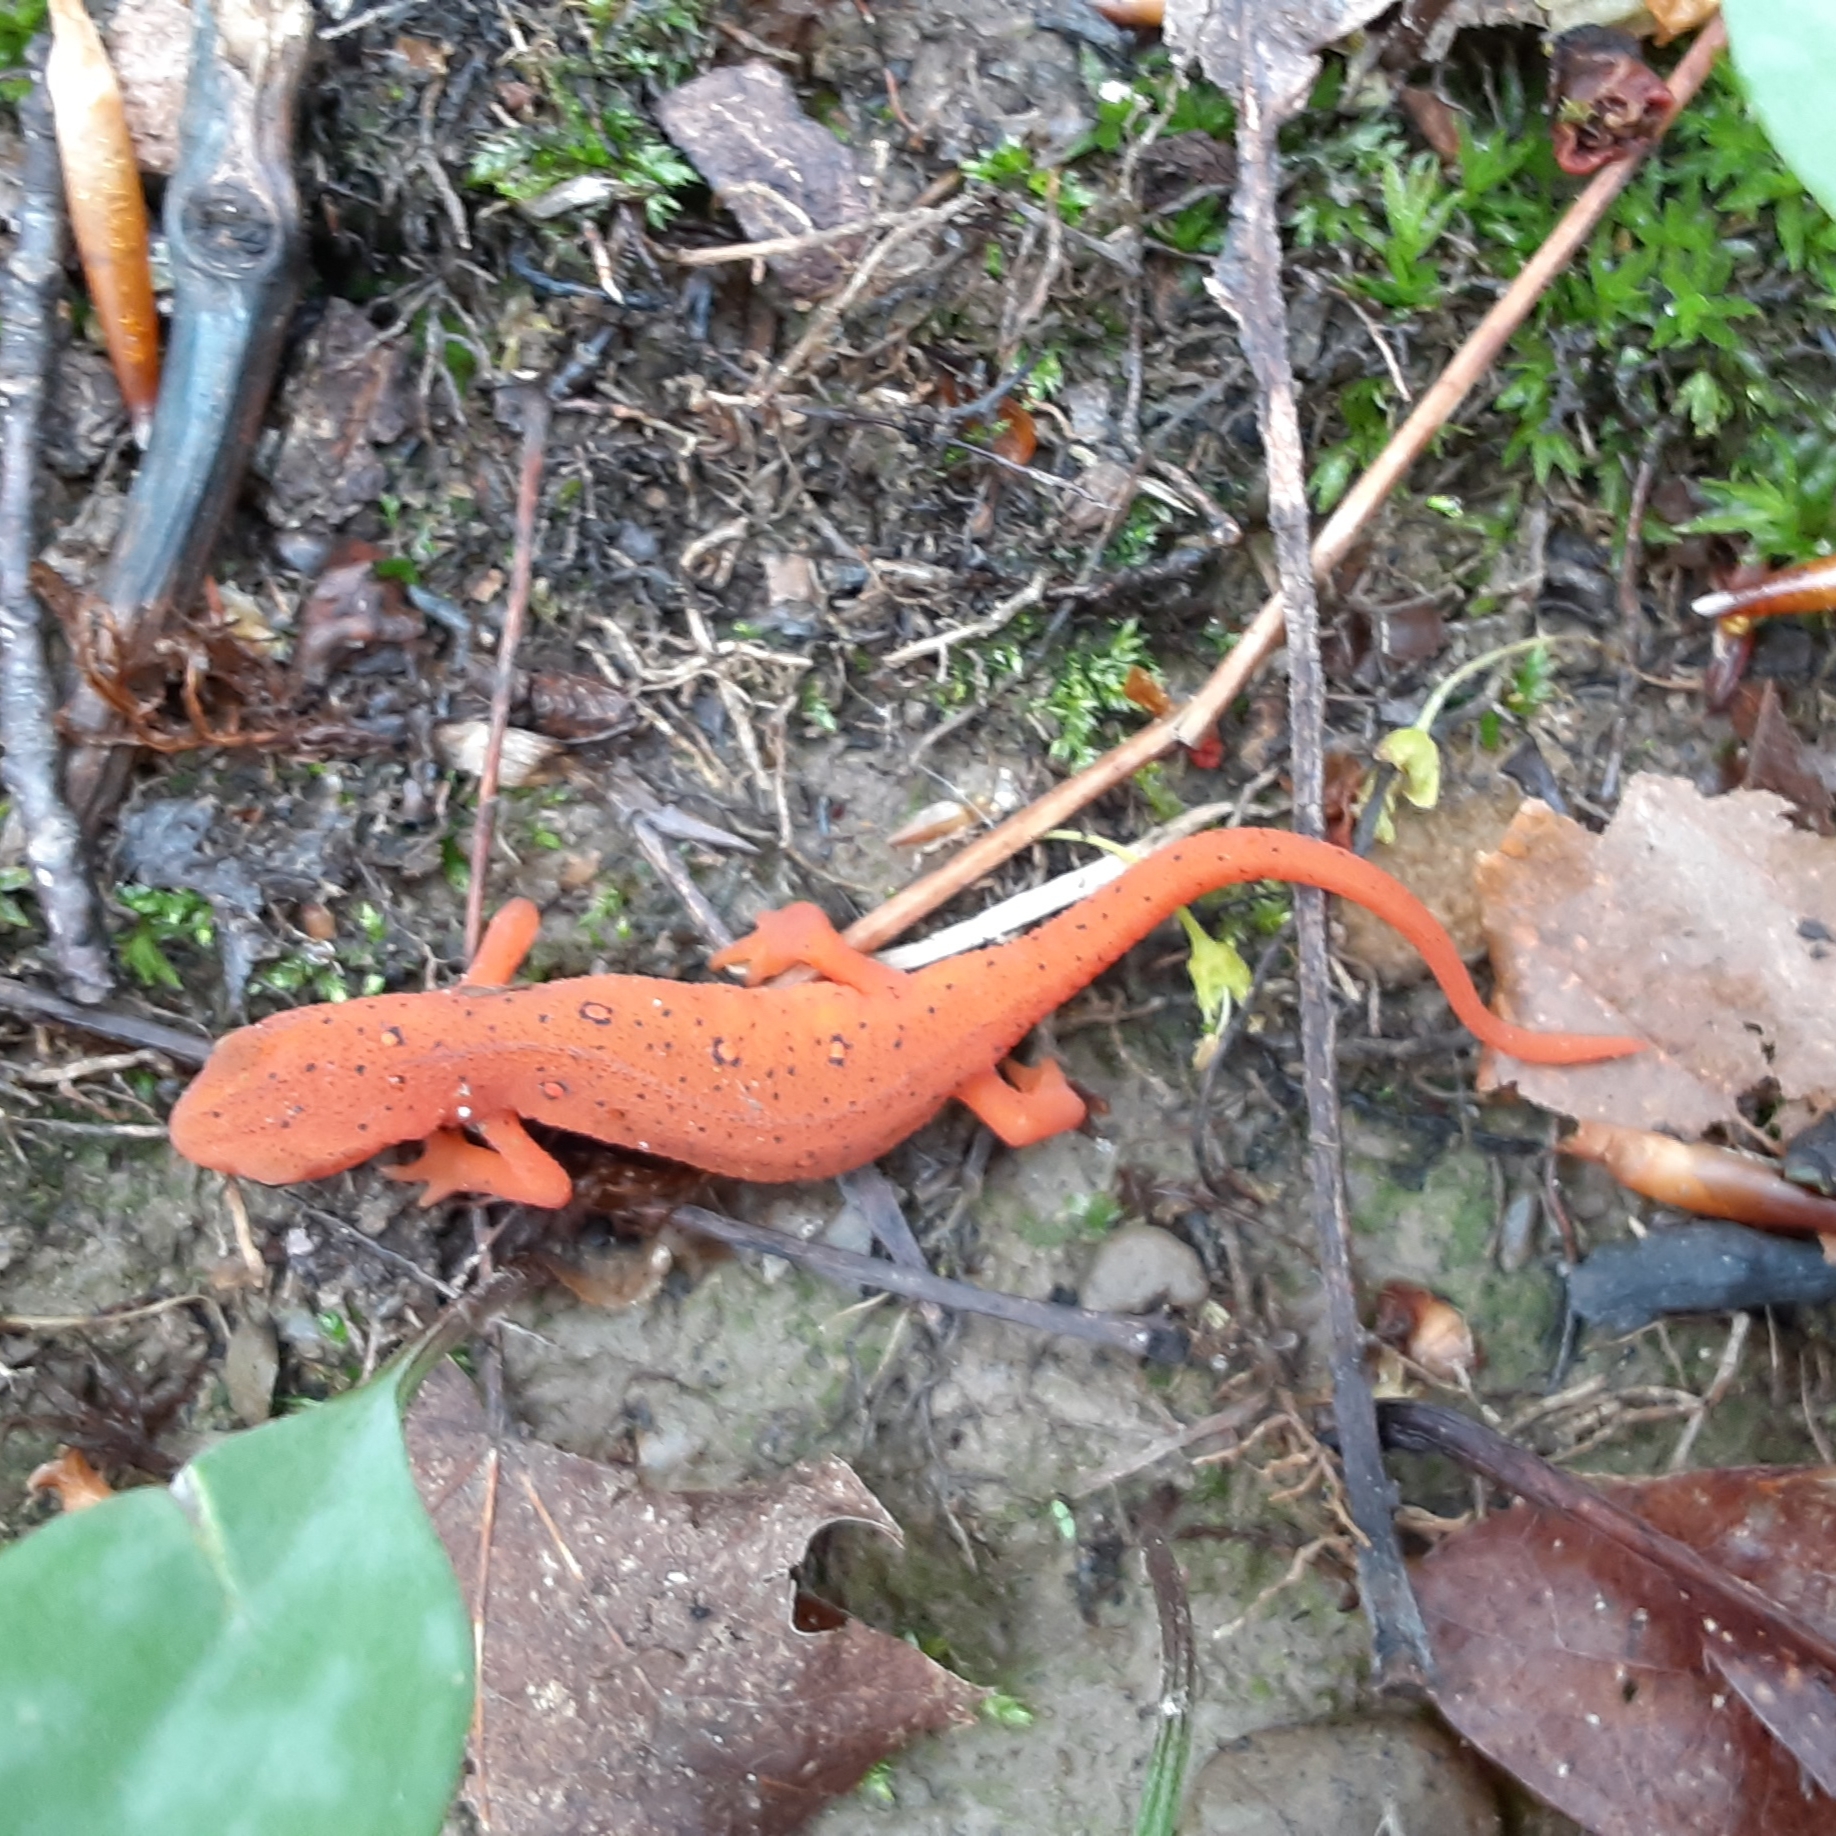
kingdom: Animalia
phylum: Chordata
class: Amphibia
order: Caudata
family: Salamandridae
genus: Notophthalmus
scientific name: Notophthalmus viridescens
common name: Eastern newt
